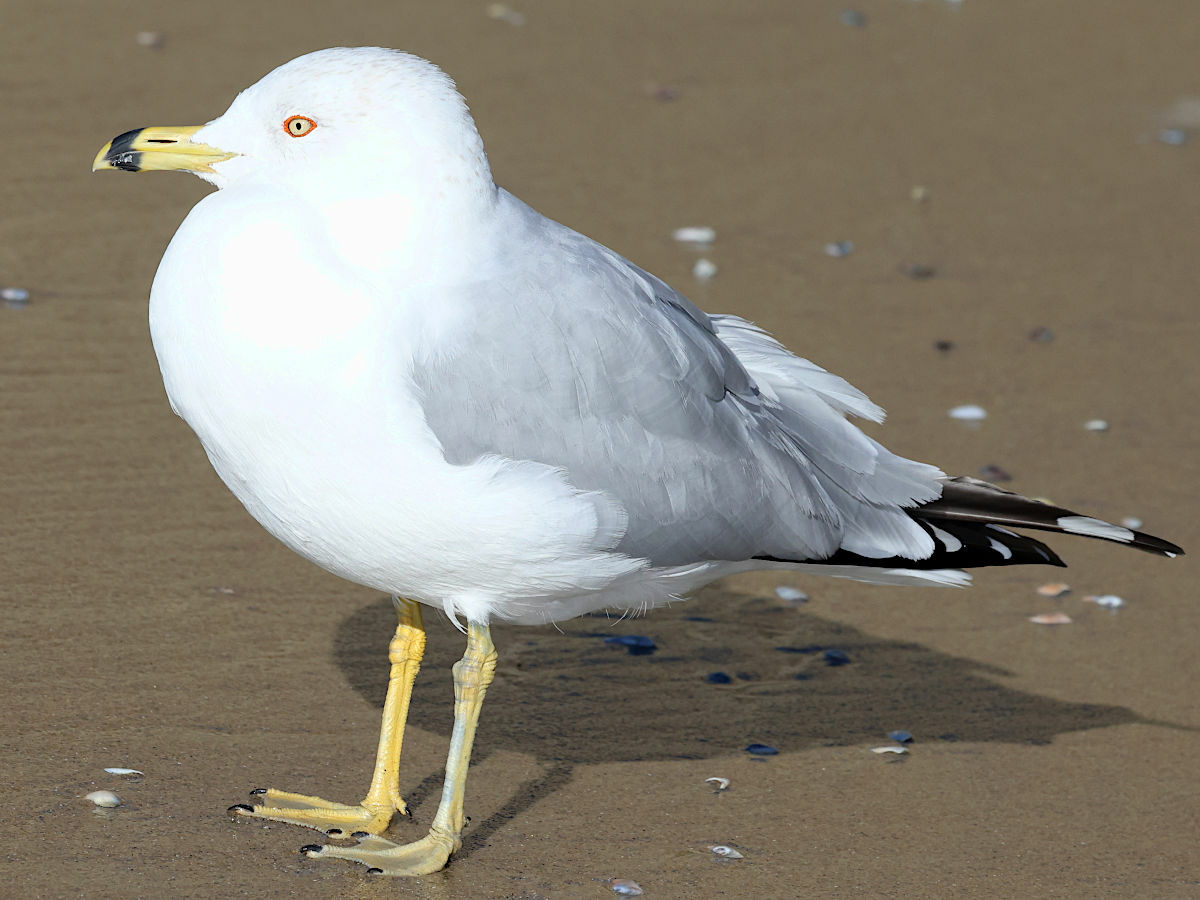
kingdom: Animalia
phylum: Chordata
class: Aves
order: Charadriiformes
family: Laridae
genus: Larus
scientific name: Larus delawarensis
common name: Ring-billed gull
